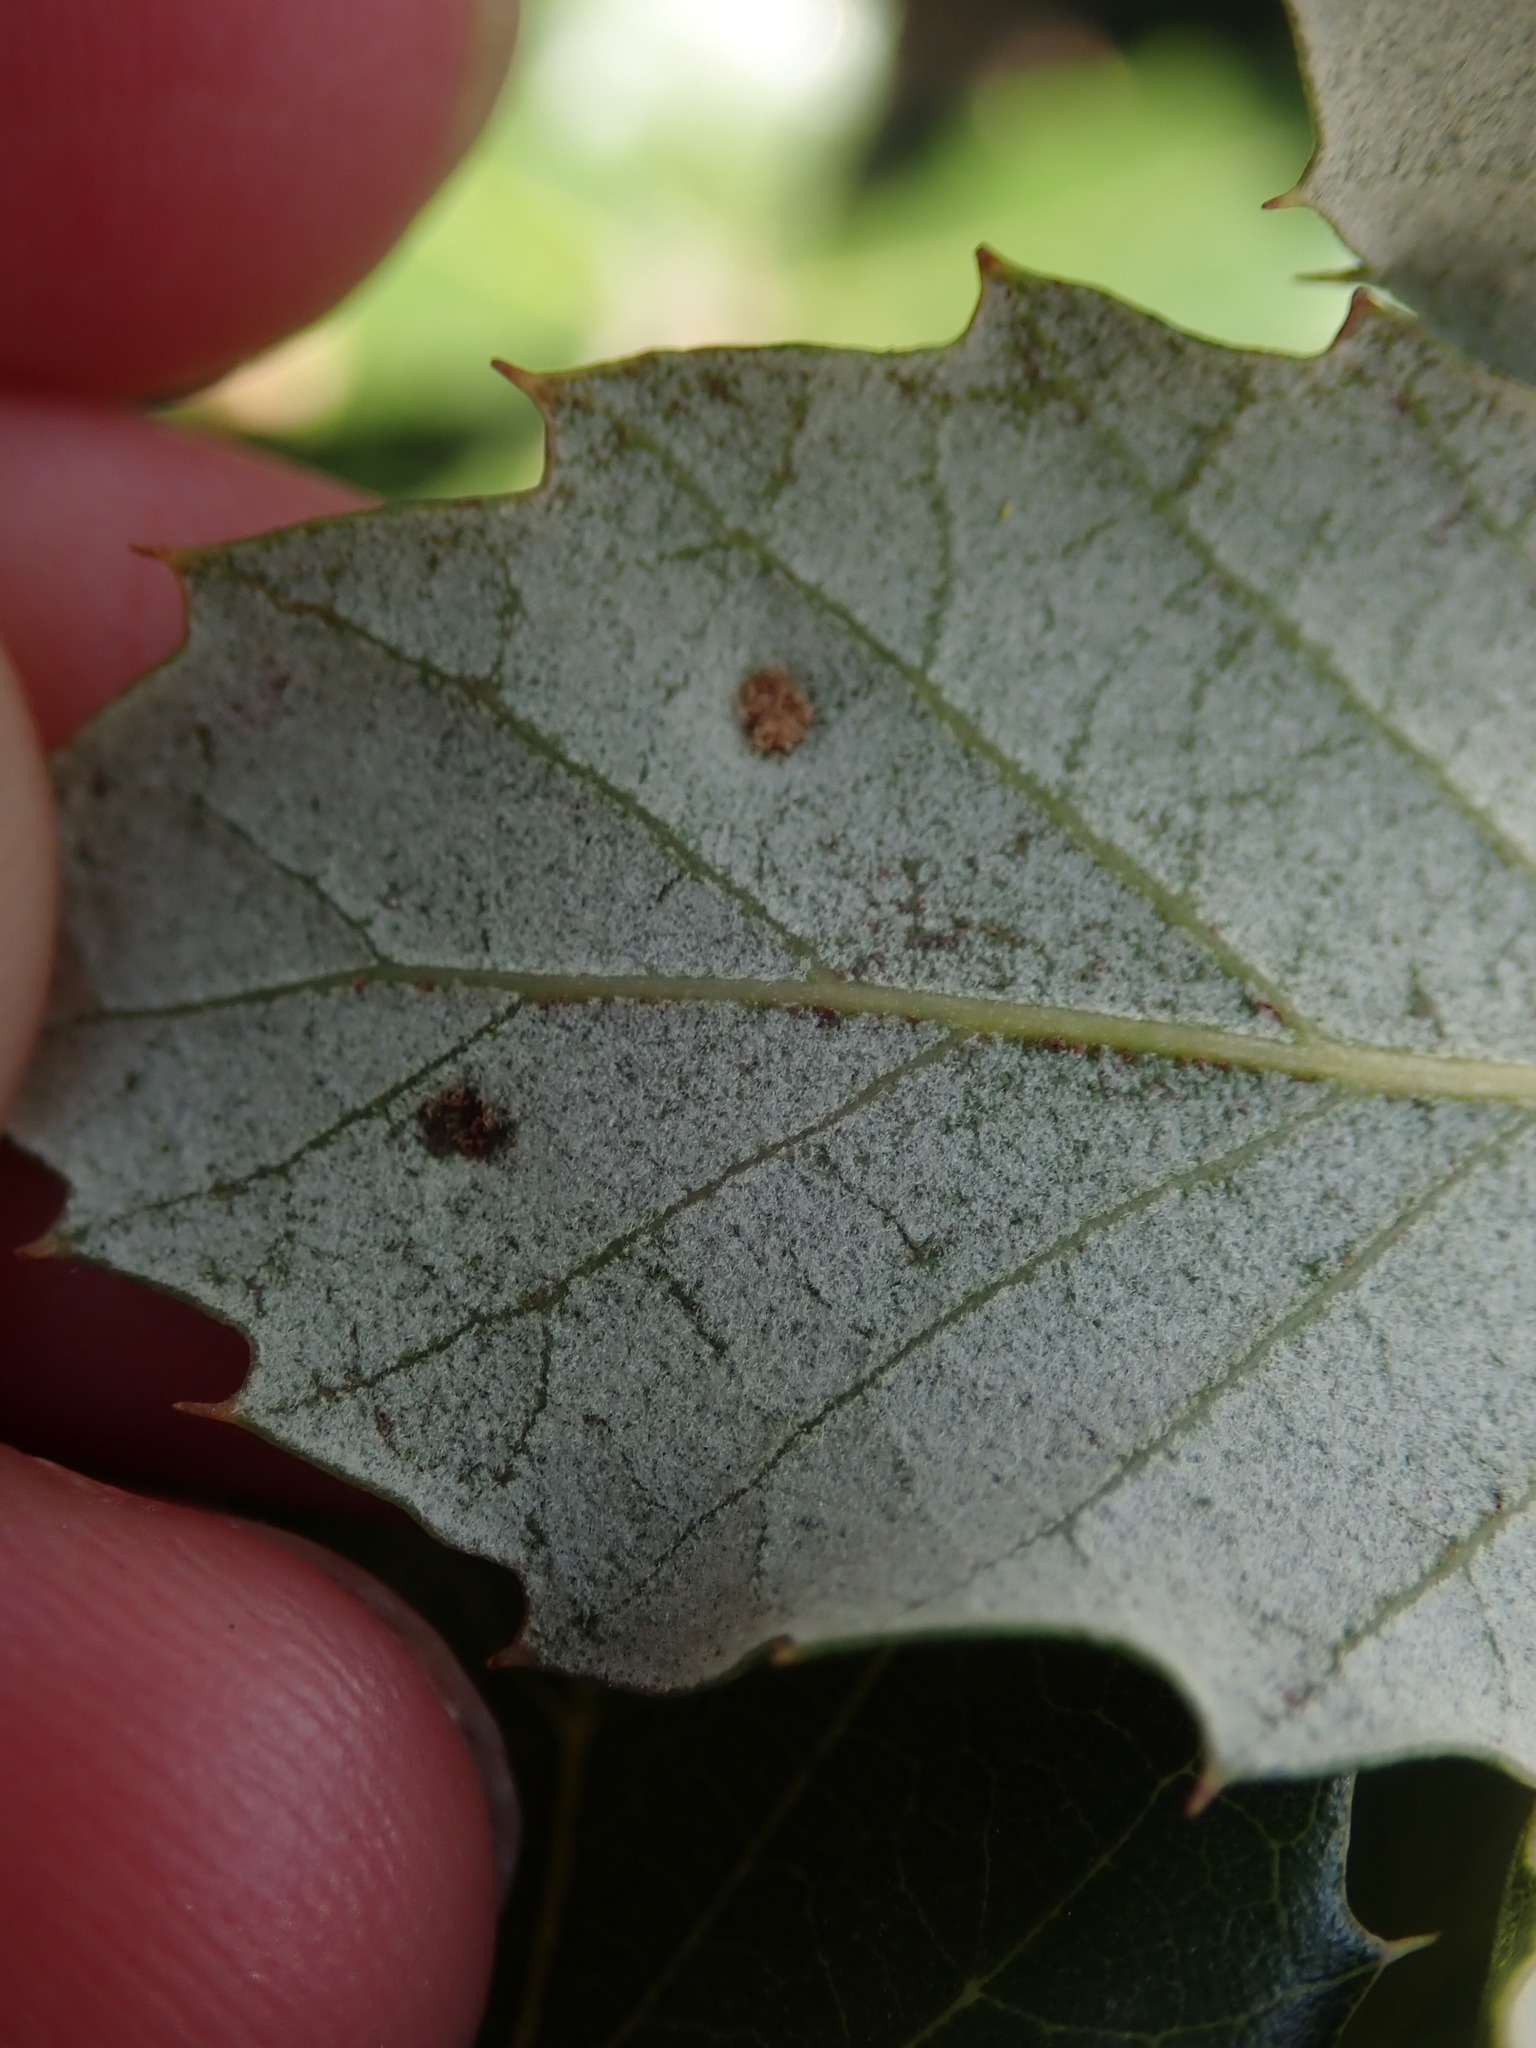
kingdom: Animalia
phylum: Arthropoda
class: Arachnida
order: Trombidiformes
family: Eriophyidae
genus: Aceria
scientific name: Aceria ilicis
